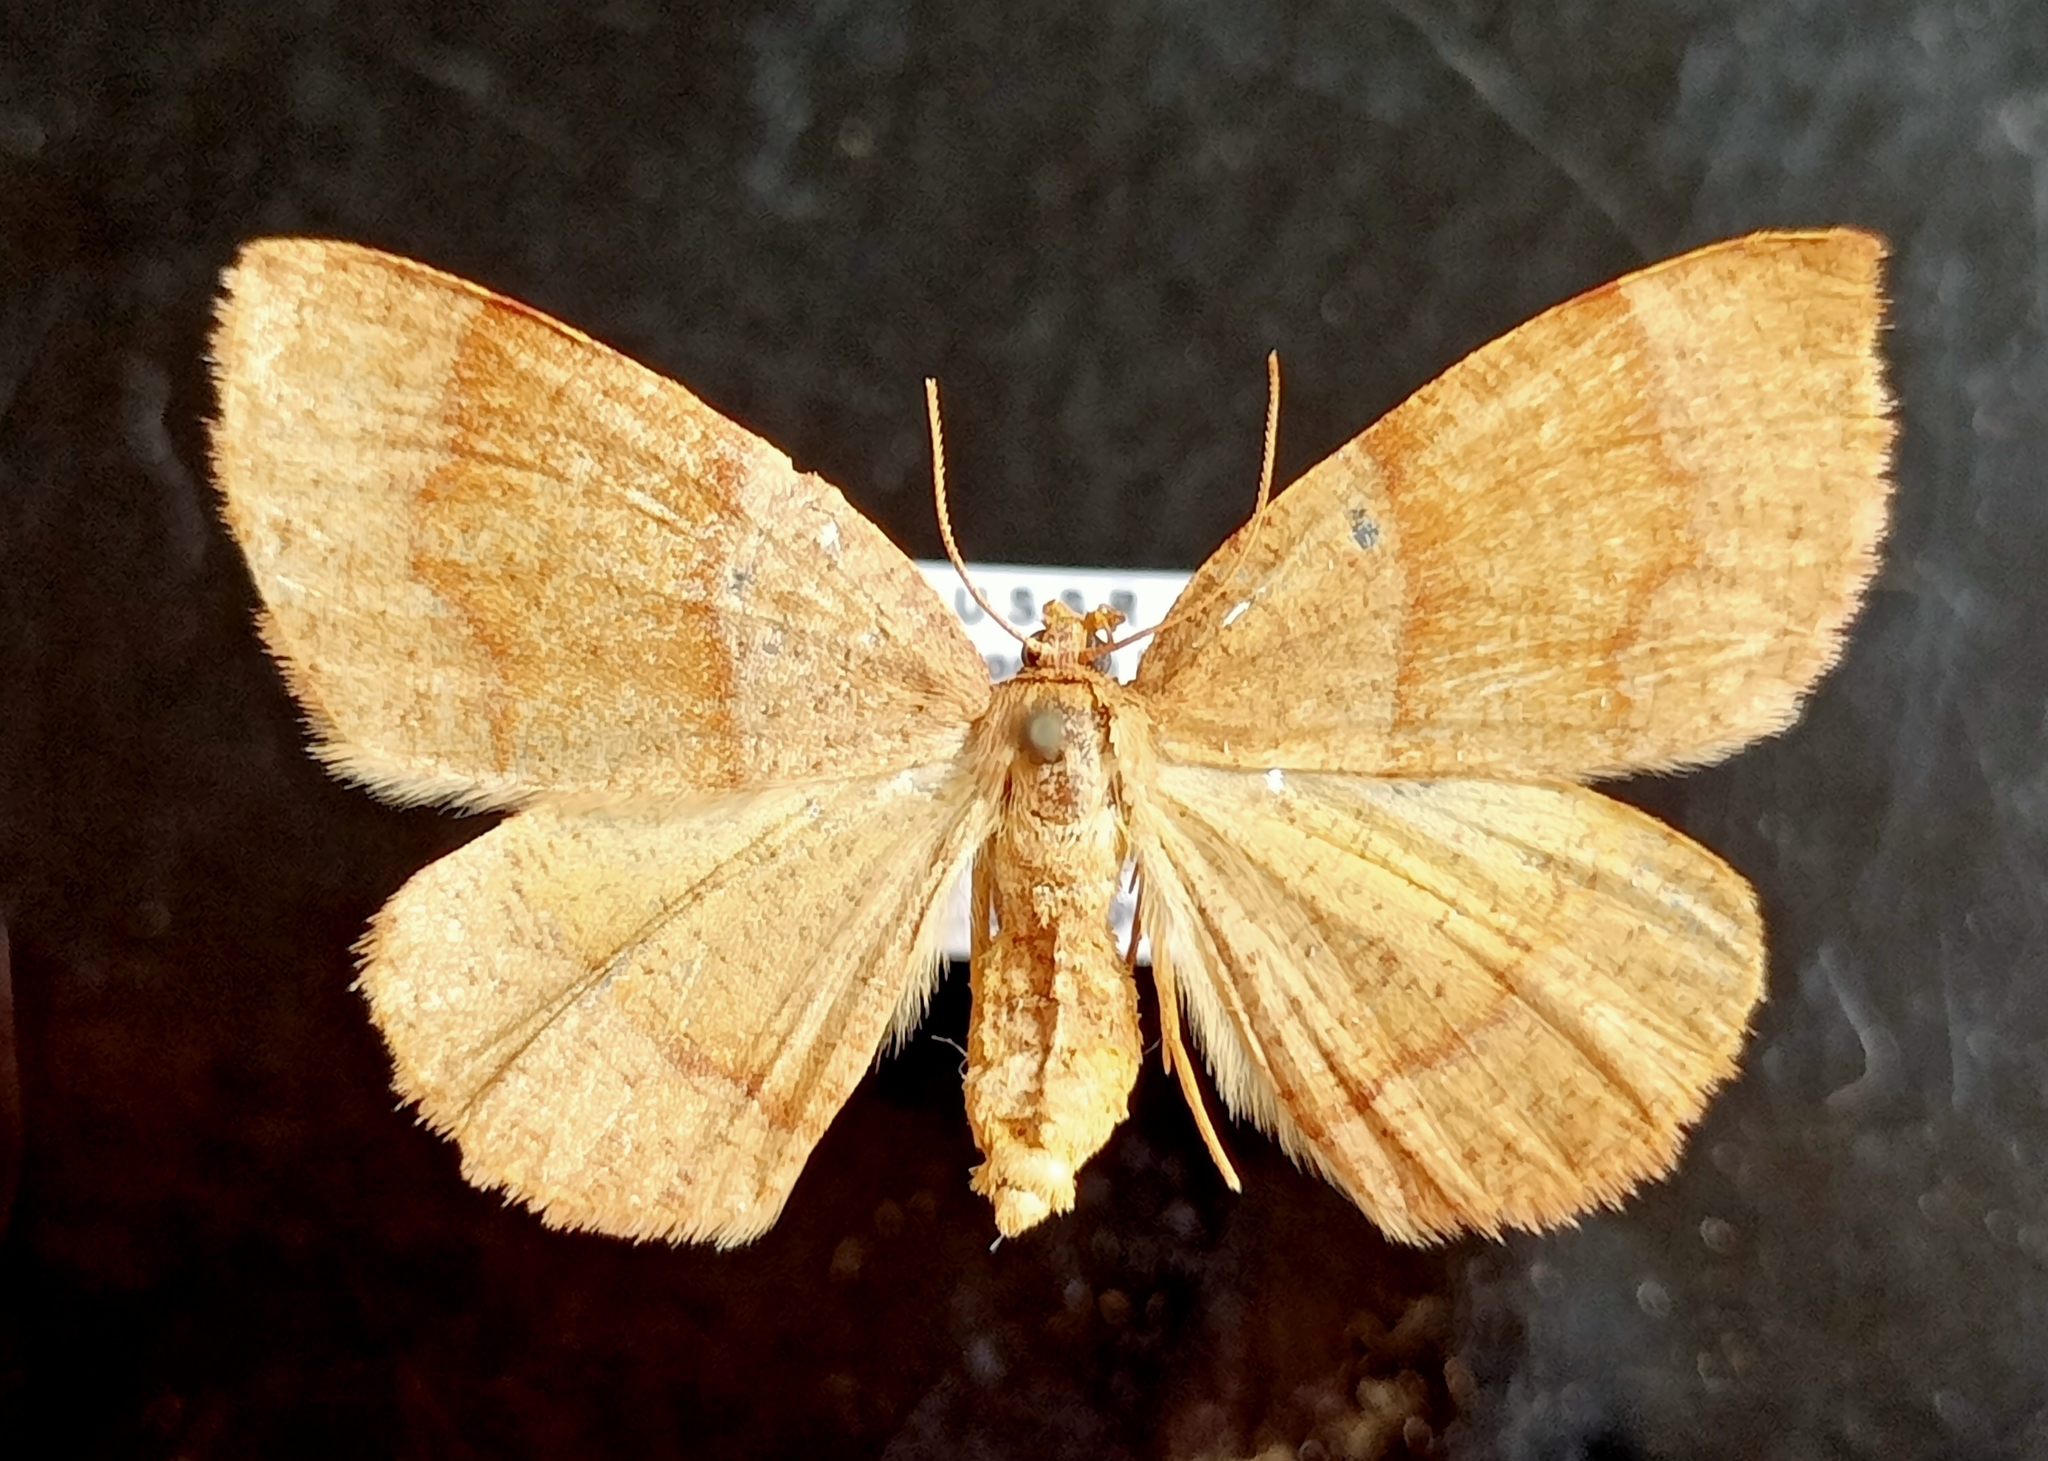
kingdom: Animalia
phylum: Arthropoda
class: Insecta
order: Lepidoptera
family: Geometridae
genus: Plagodis
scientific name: Plagodis pulveraria
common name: Barred umber
